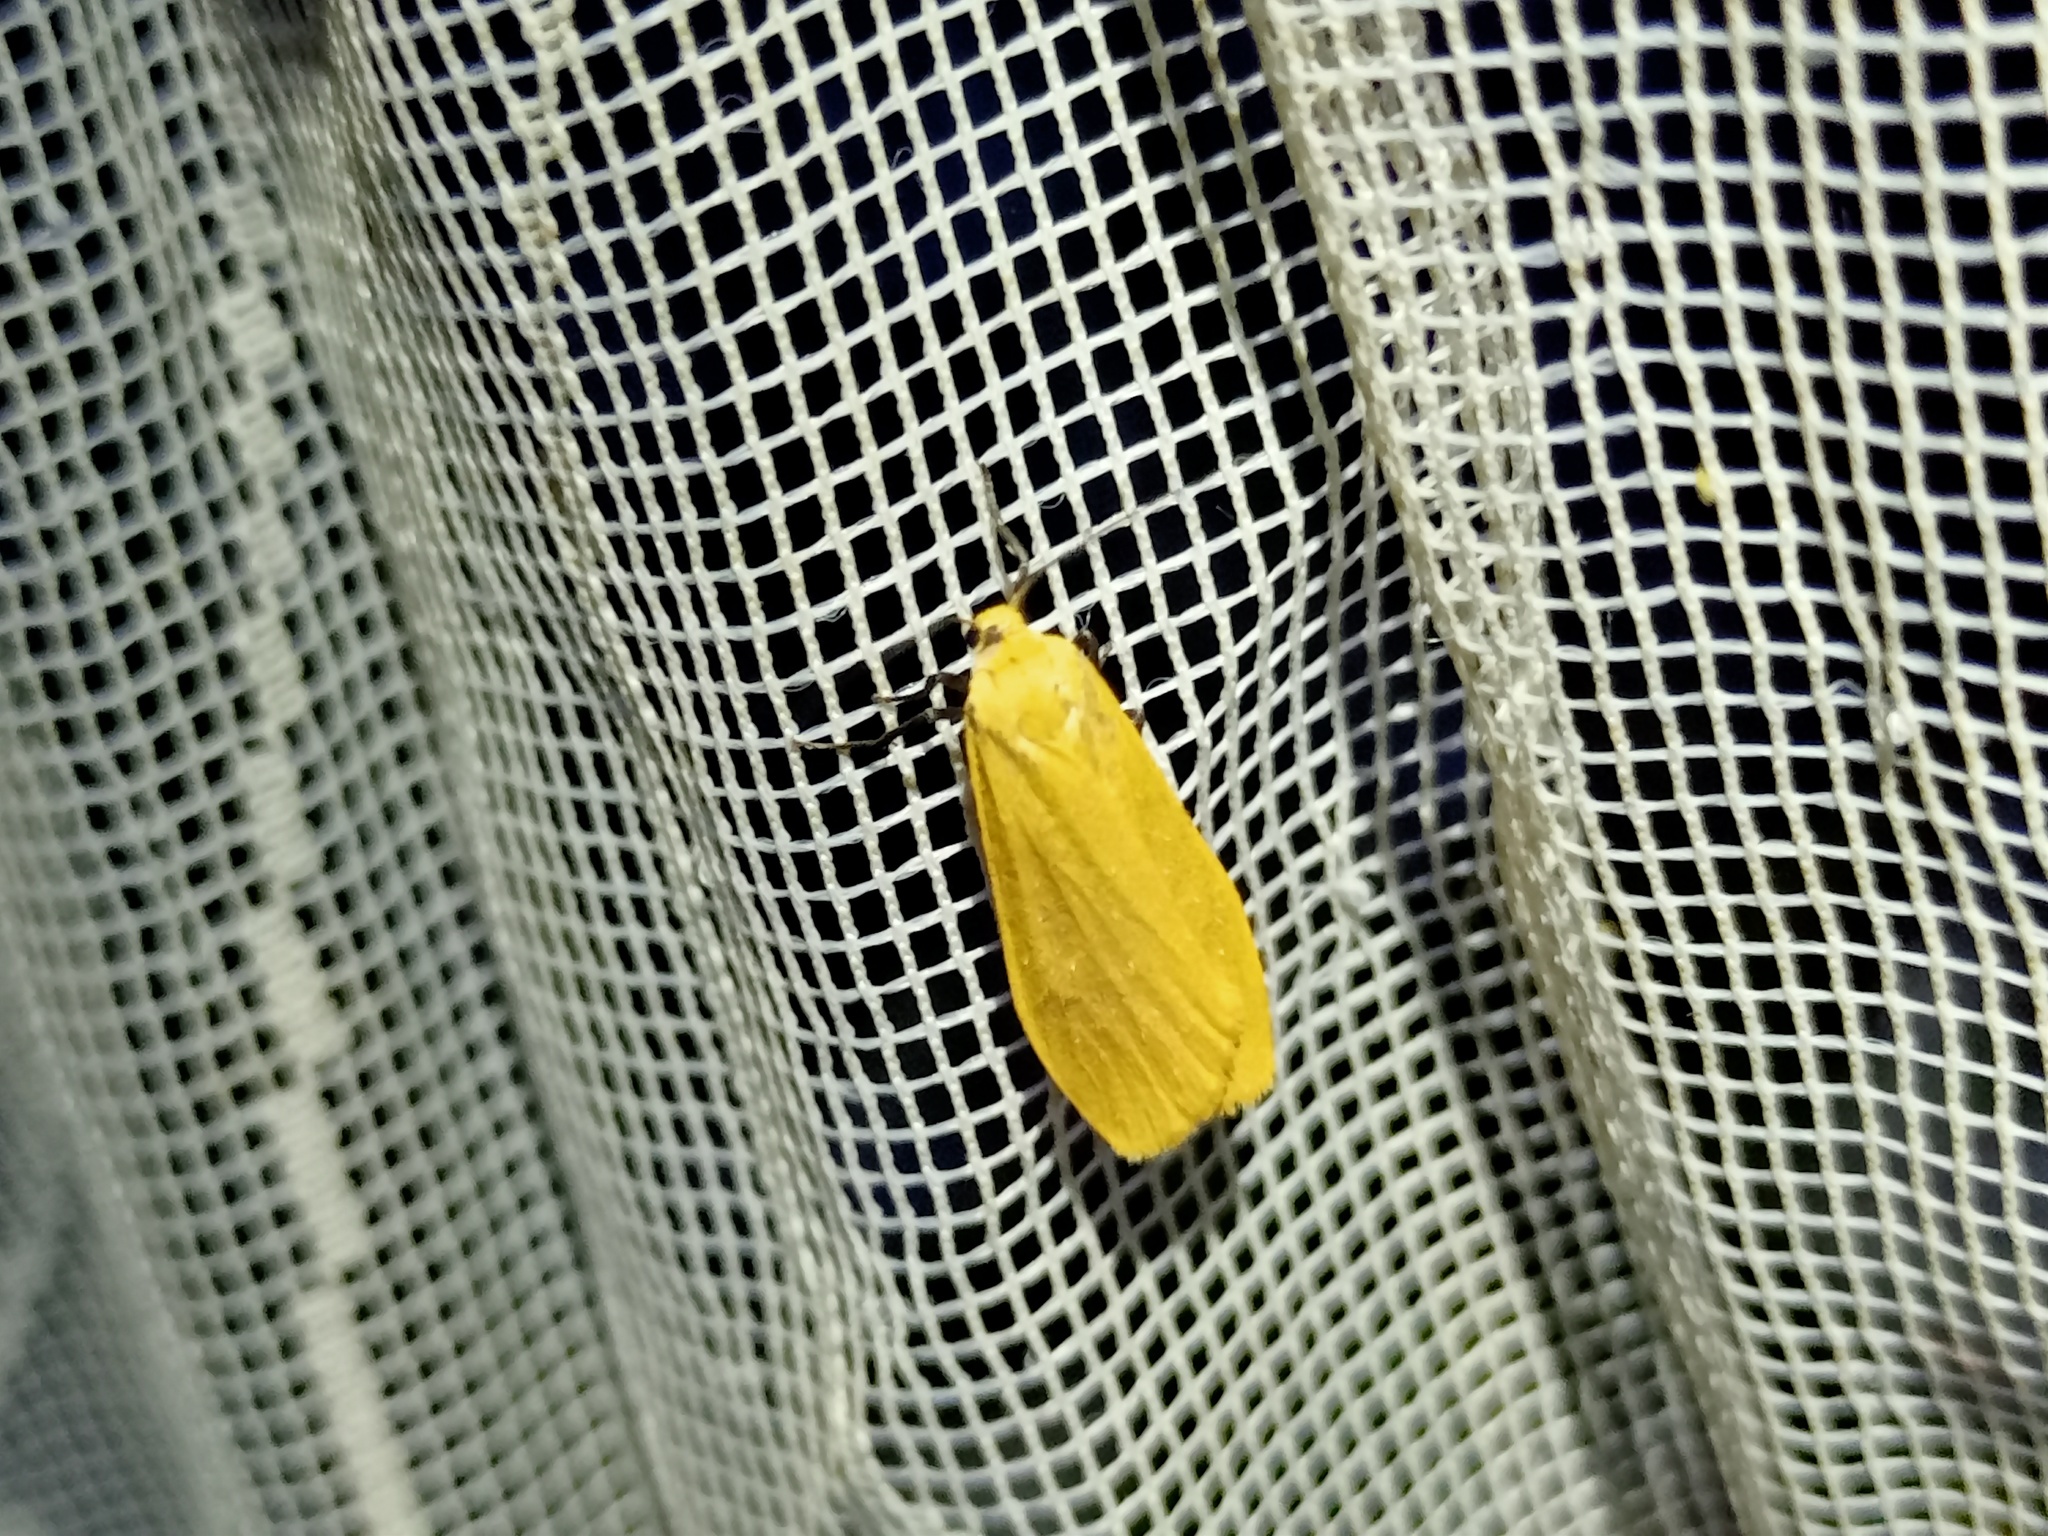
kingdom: Animalia
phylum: Arthropoda
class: Insecta
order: Lepidoptera
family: Erebidae
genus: Wittia
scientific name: Wittia sororcula
